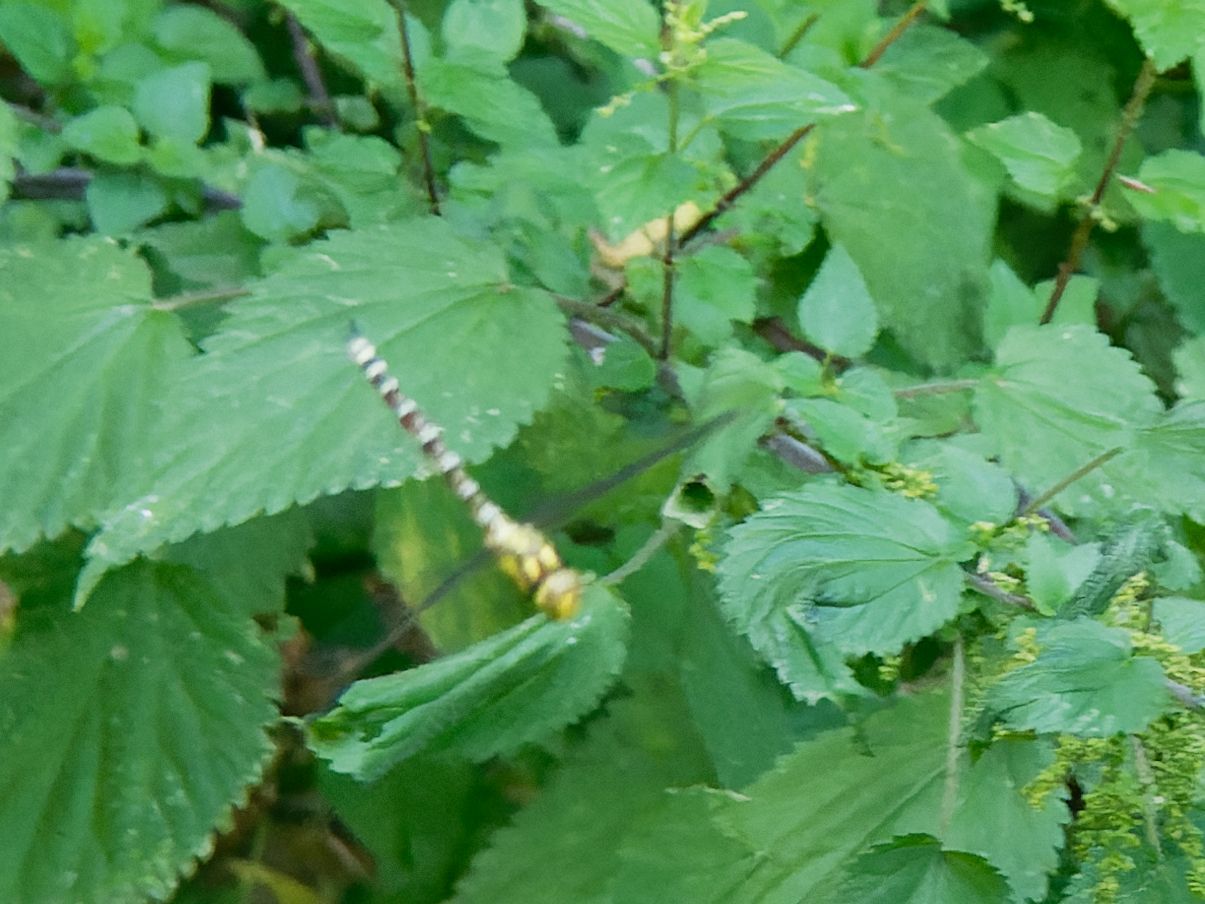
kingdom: Animalia
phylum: Arthropoda
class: Insecta
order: Odonata
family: Aeshnidae
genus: Aeshna
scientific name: Aeshna cyanea
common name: Southern hawker
